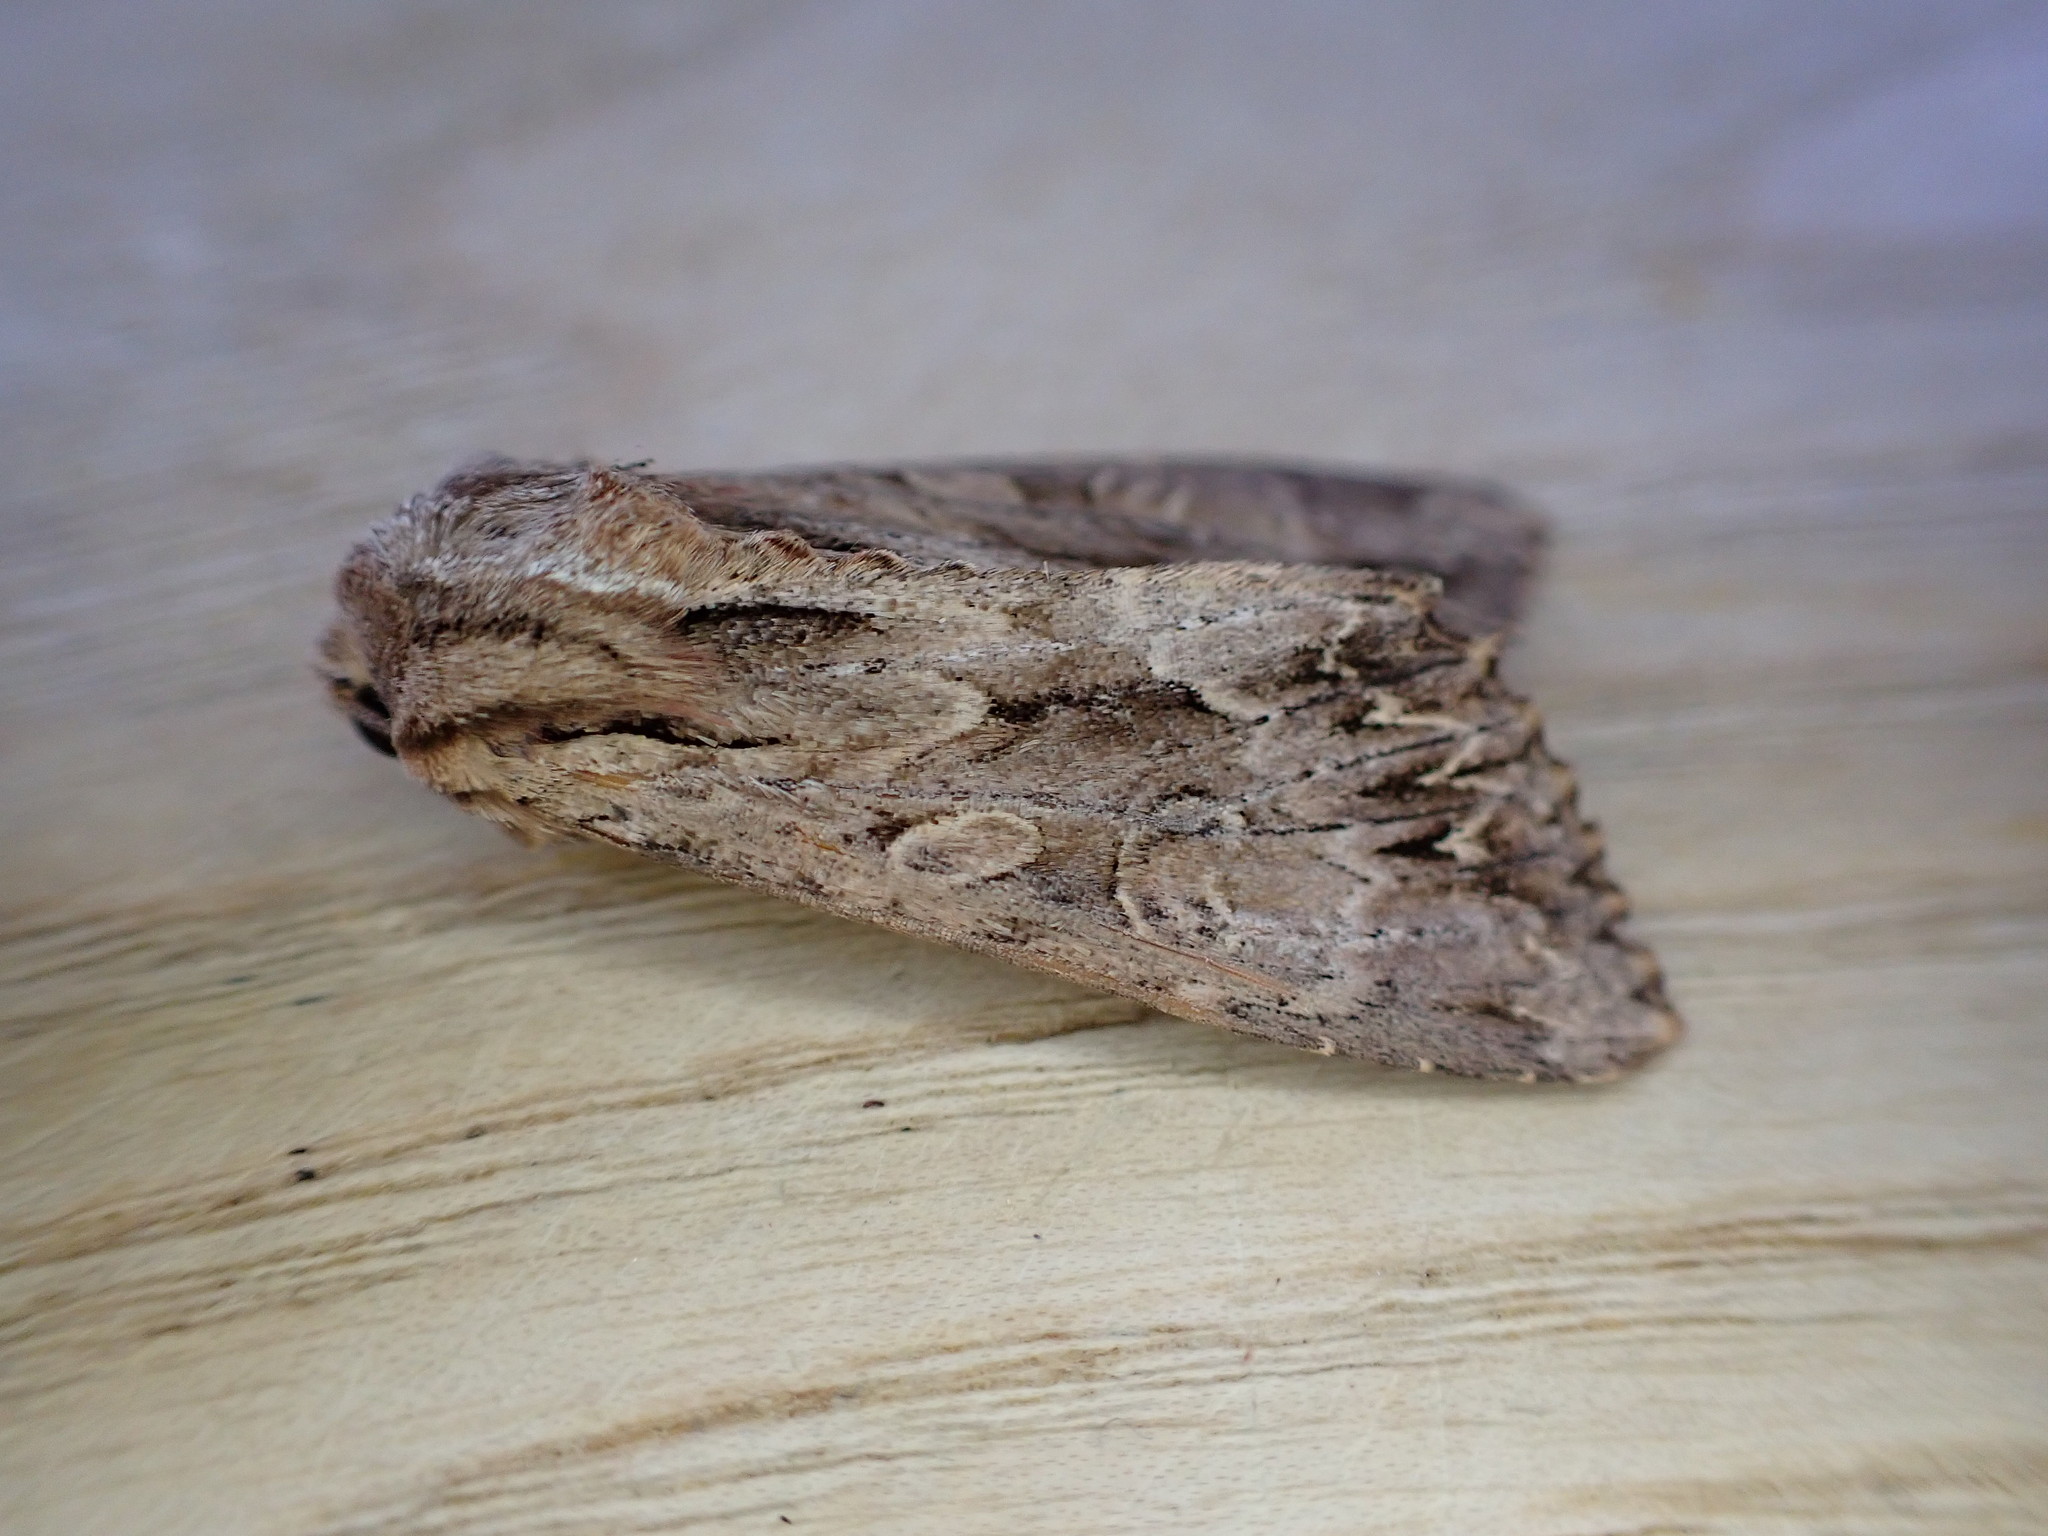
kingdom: Animalia
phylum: Arthropoda
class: Insecta
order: Lepidoptera
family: Noctuidae
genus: Apamea
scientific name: Apamea monoglypha
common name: Dark arches
